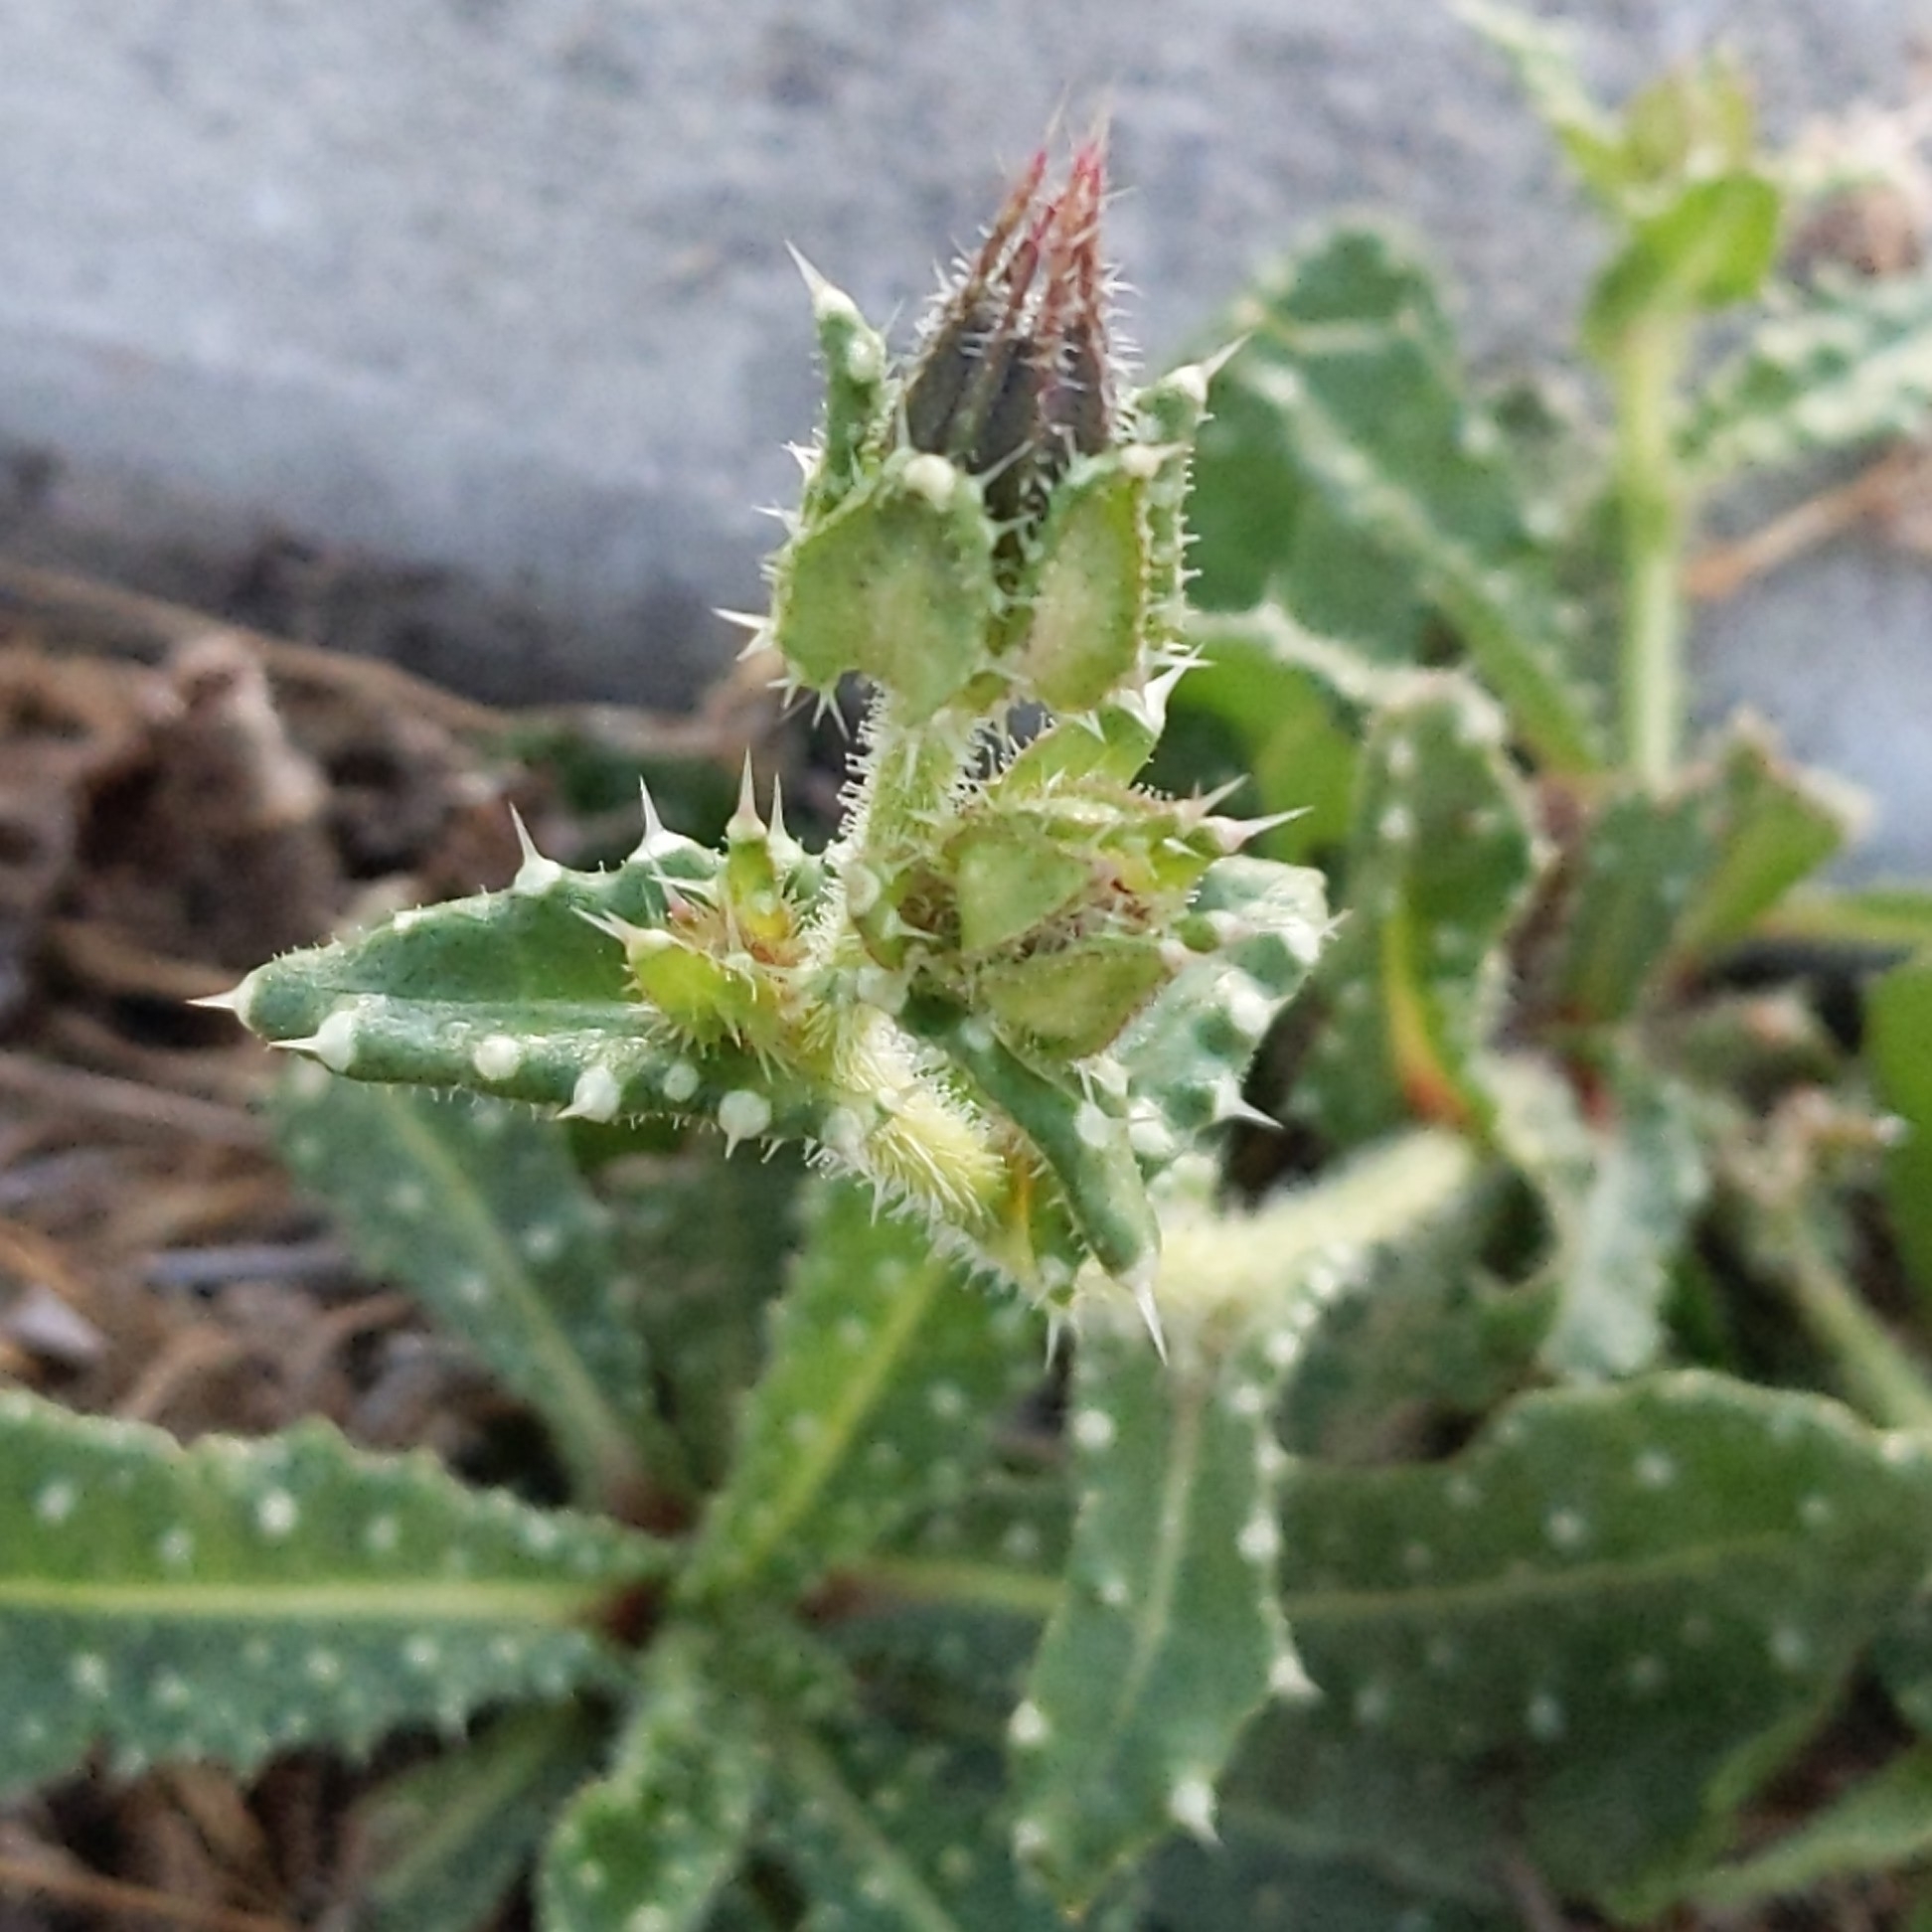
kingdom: Plantae
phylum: Tracheophyta
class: Magnoliopsida
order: Asterales
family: Asteraceae
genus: Helminthotheca
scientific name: Helminthotheca echioides
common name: Ox-tongue
